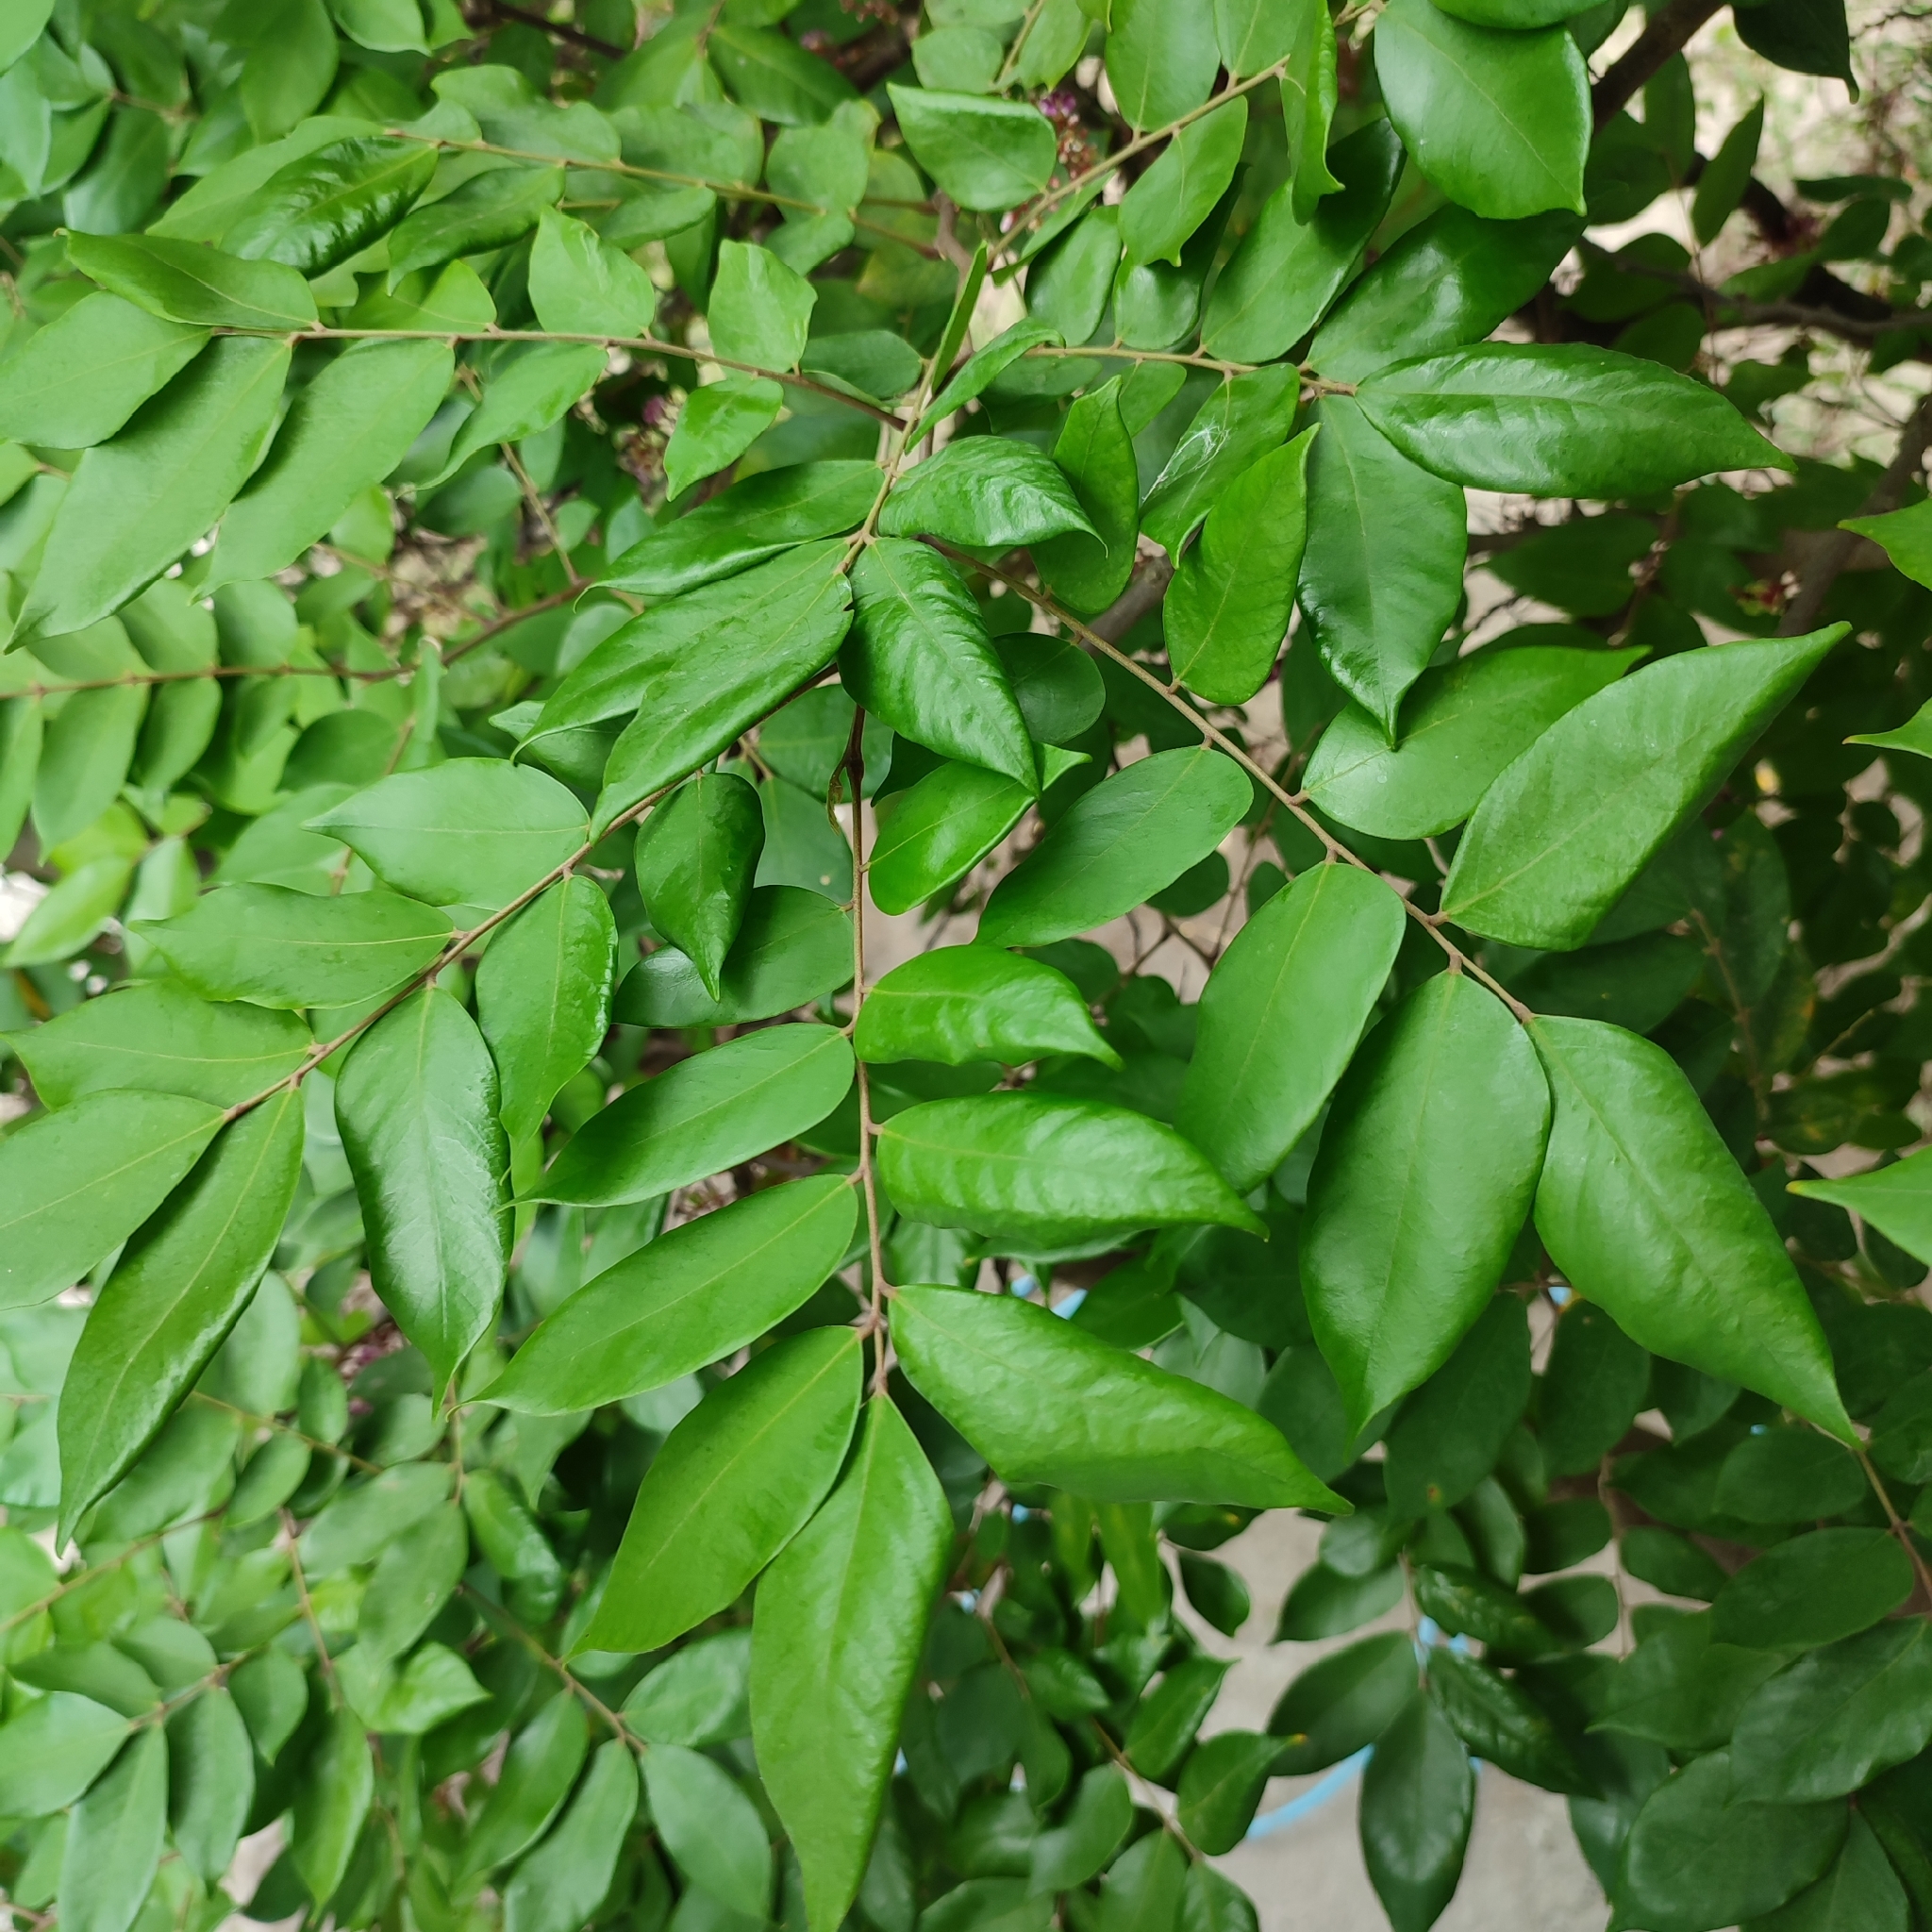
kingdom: Plantae
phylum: Tracheophyta
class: Magnoliopsida
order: Oxalidales
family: Oxalidaceae
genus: Averrhoa
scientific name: Averrhoa carambola
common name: Blimbing
